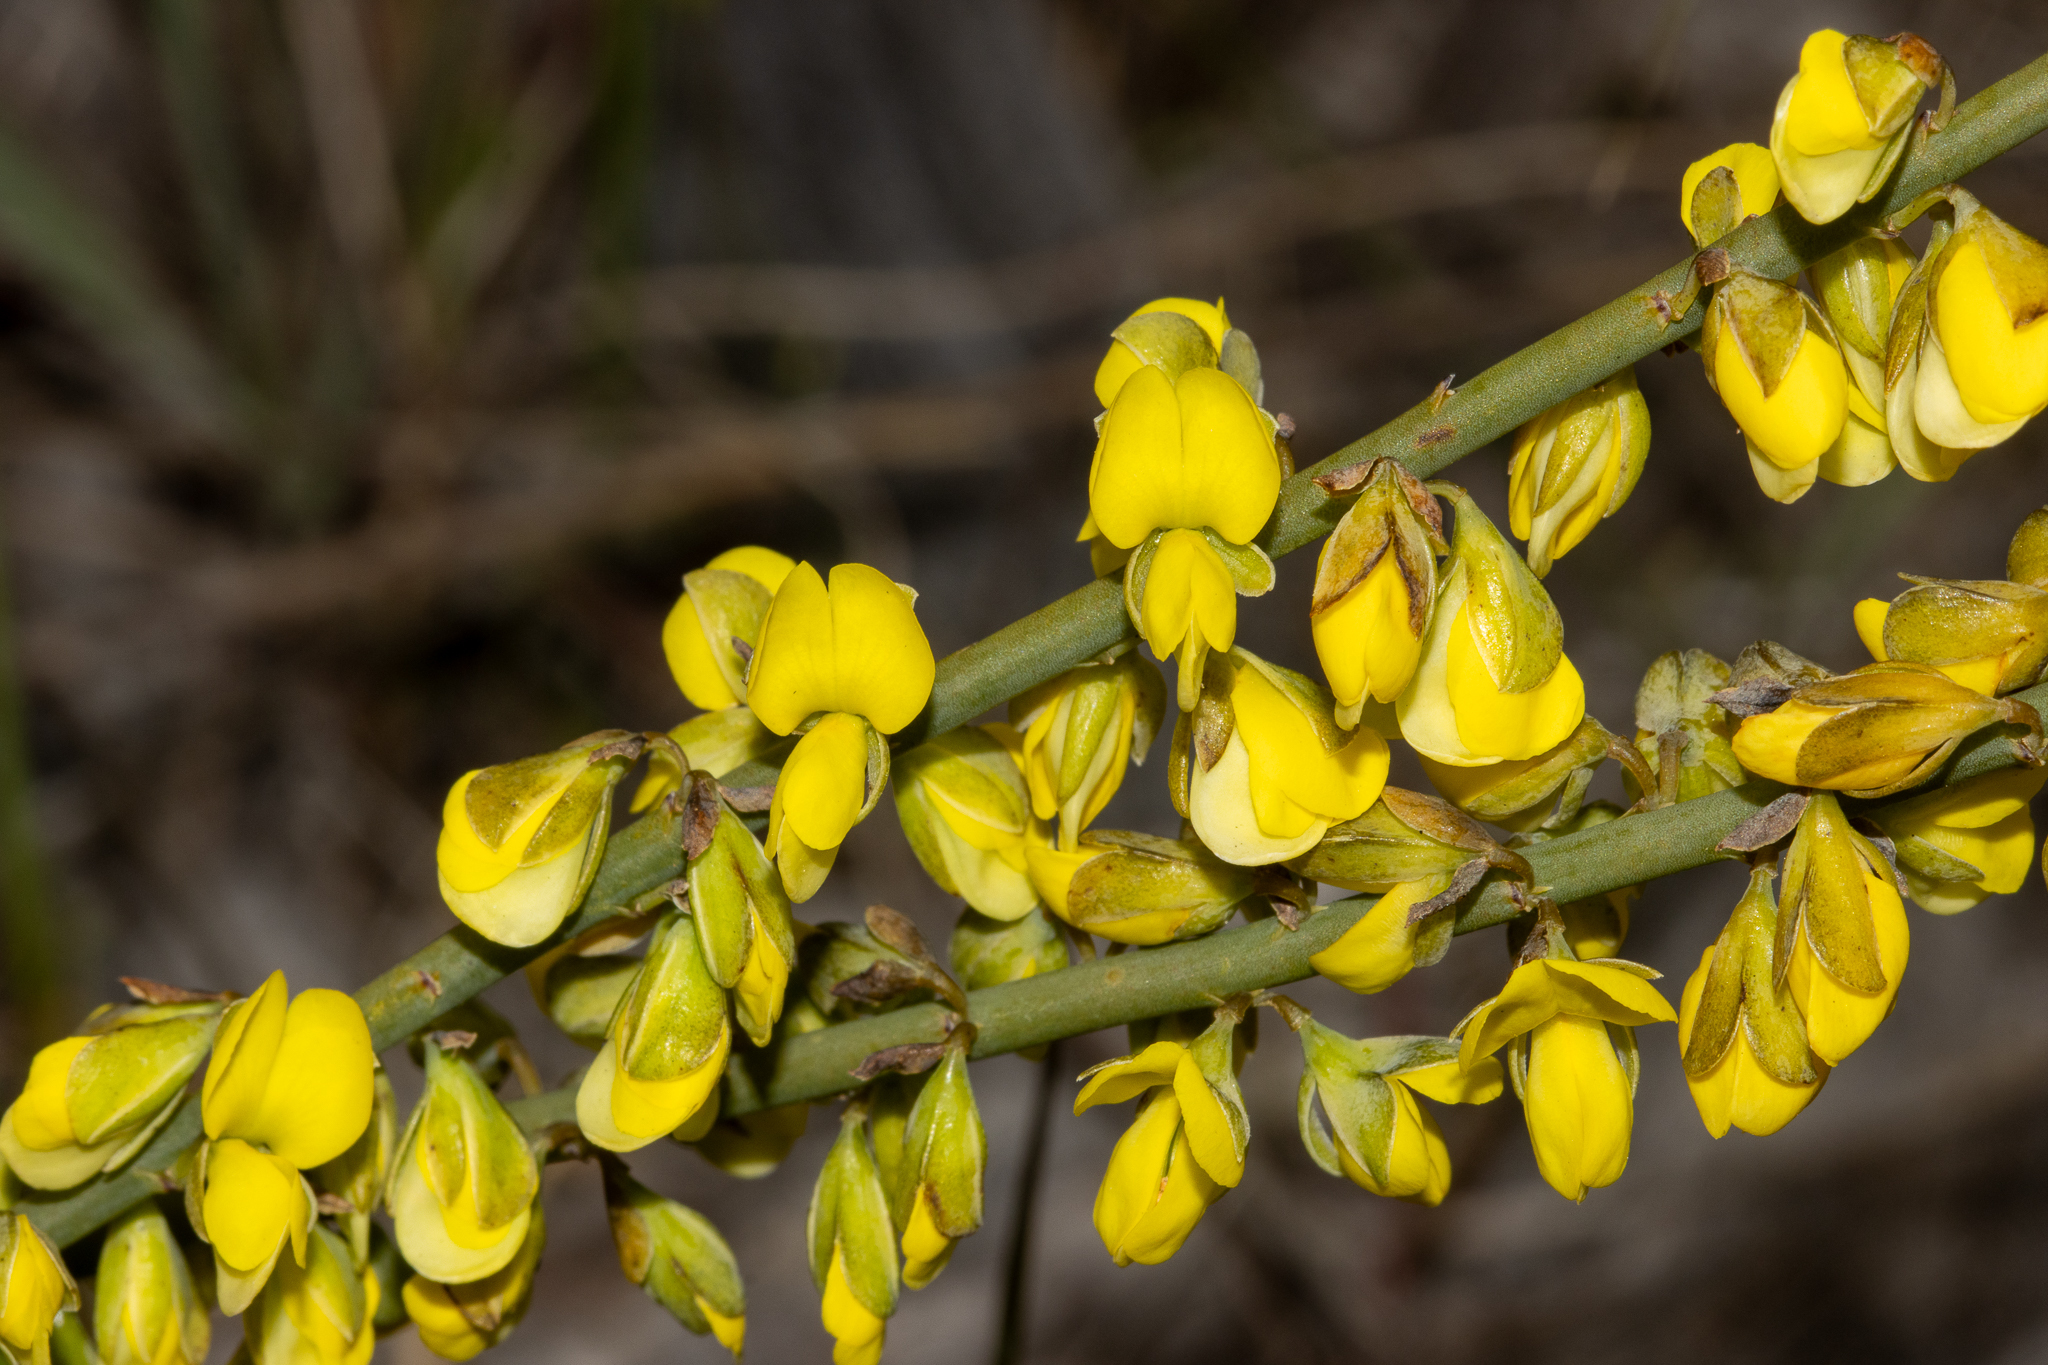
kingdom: Plantae
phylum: Tracheophyta
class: Magnoliopsida
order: Fabales
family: Fabaceae
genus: Sphaerolobium
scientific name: Sphaerolobium macranthum
